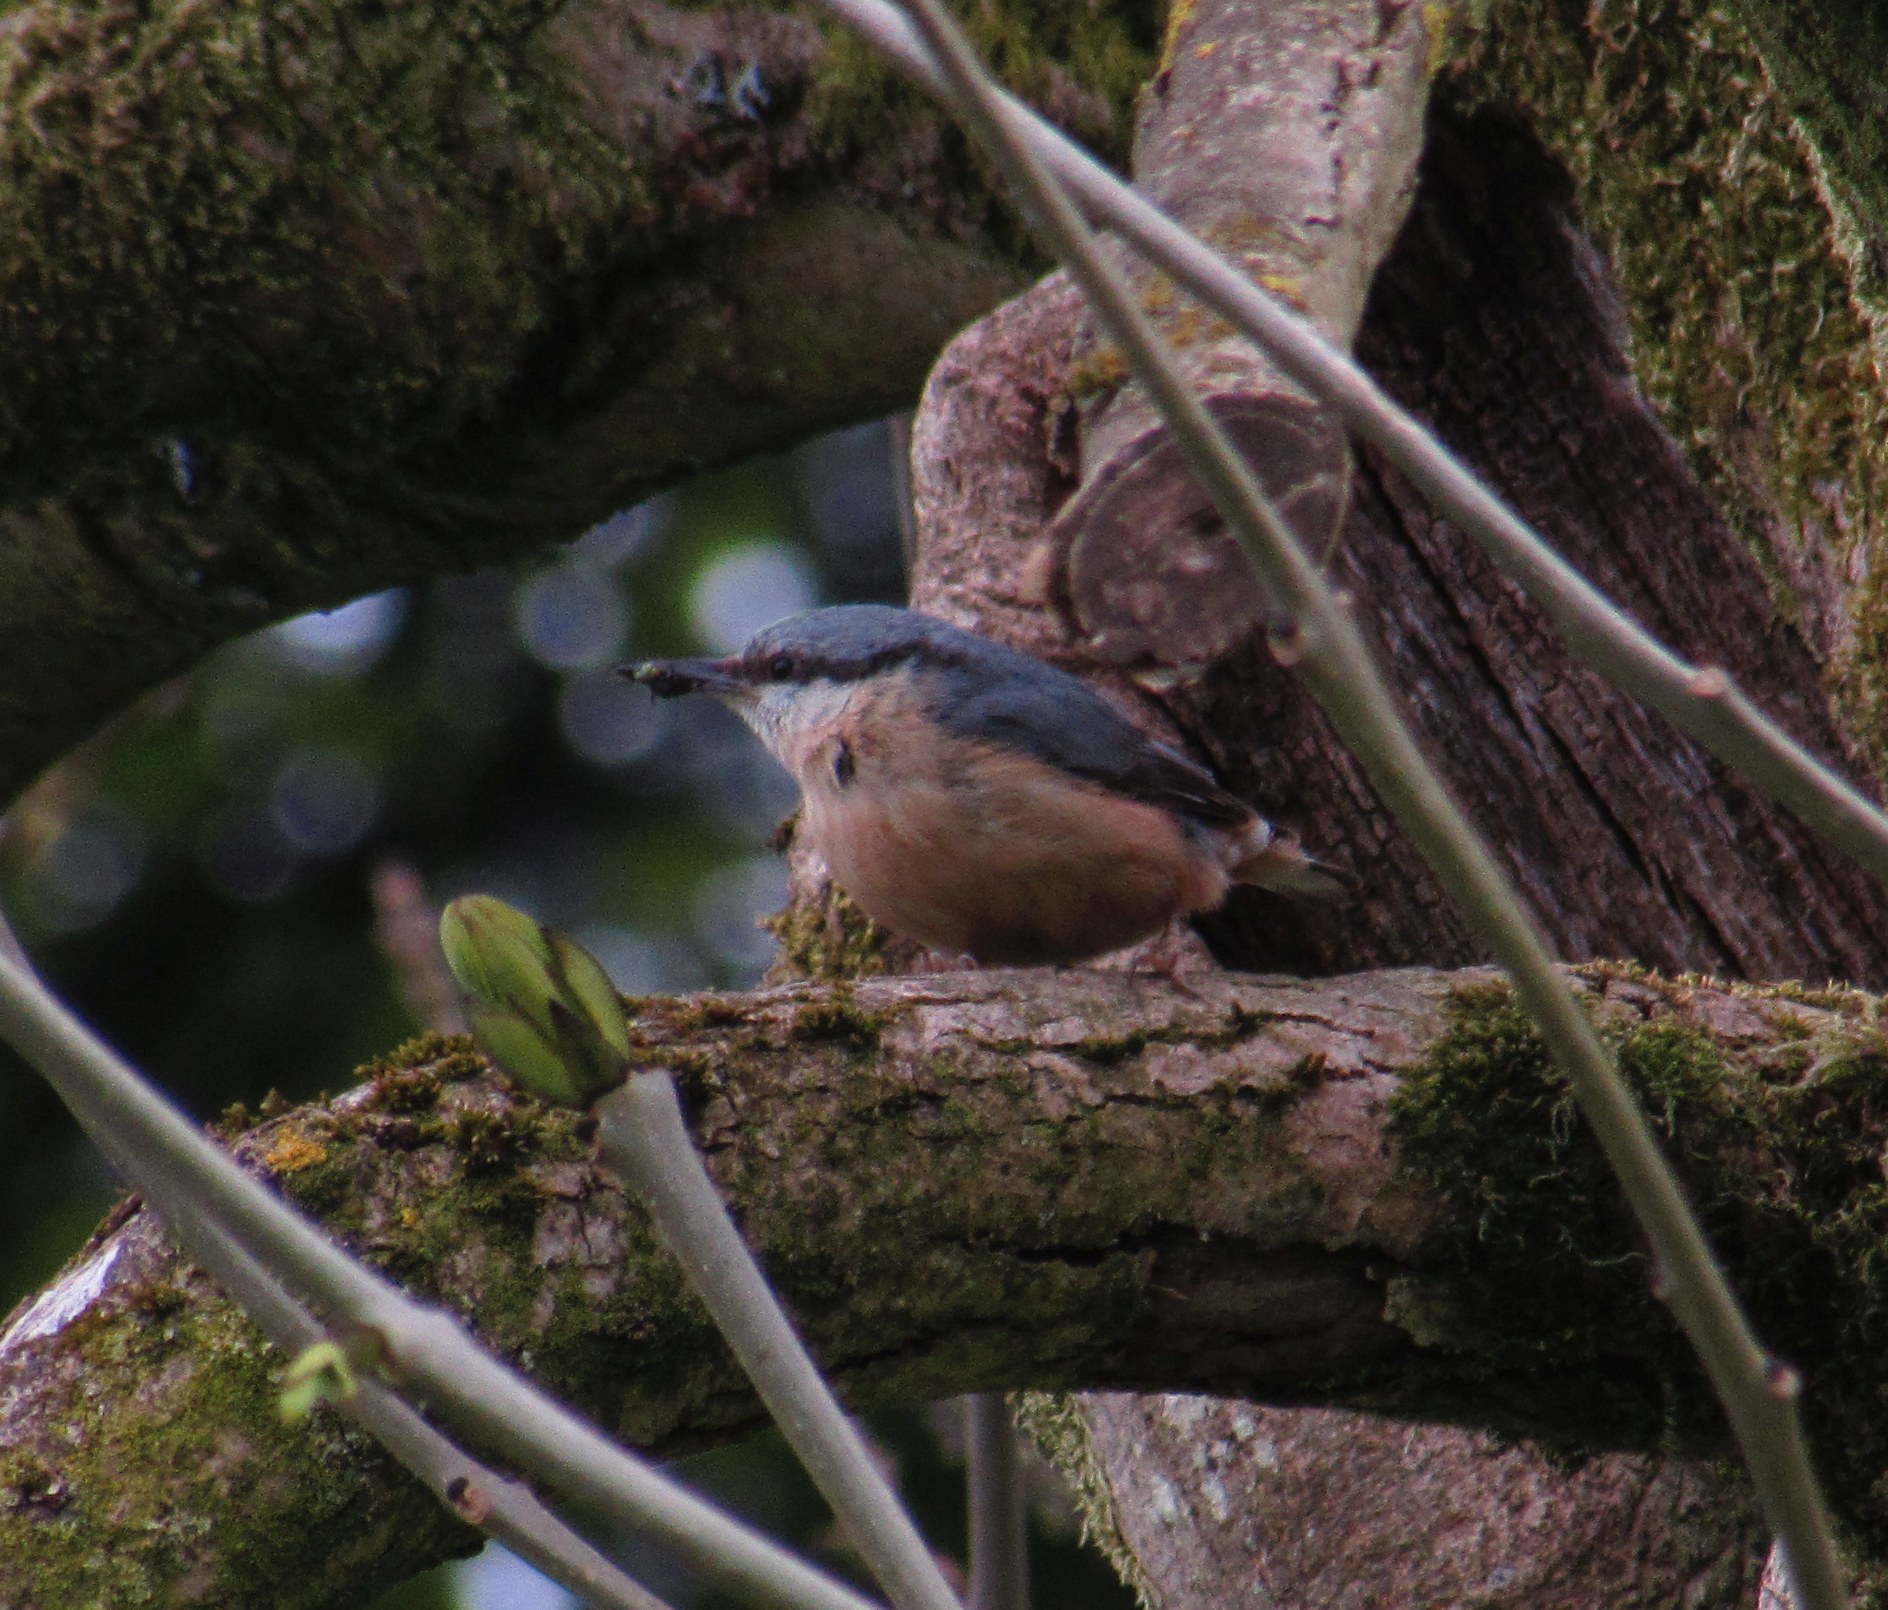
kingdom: Animalia
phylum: Chordata
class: Aves
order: Passeriformes
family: Sittidae
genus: Sitta
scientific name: Sitta europaea
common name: Eurasian nuthatch
